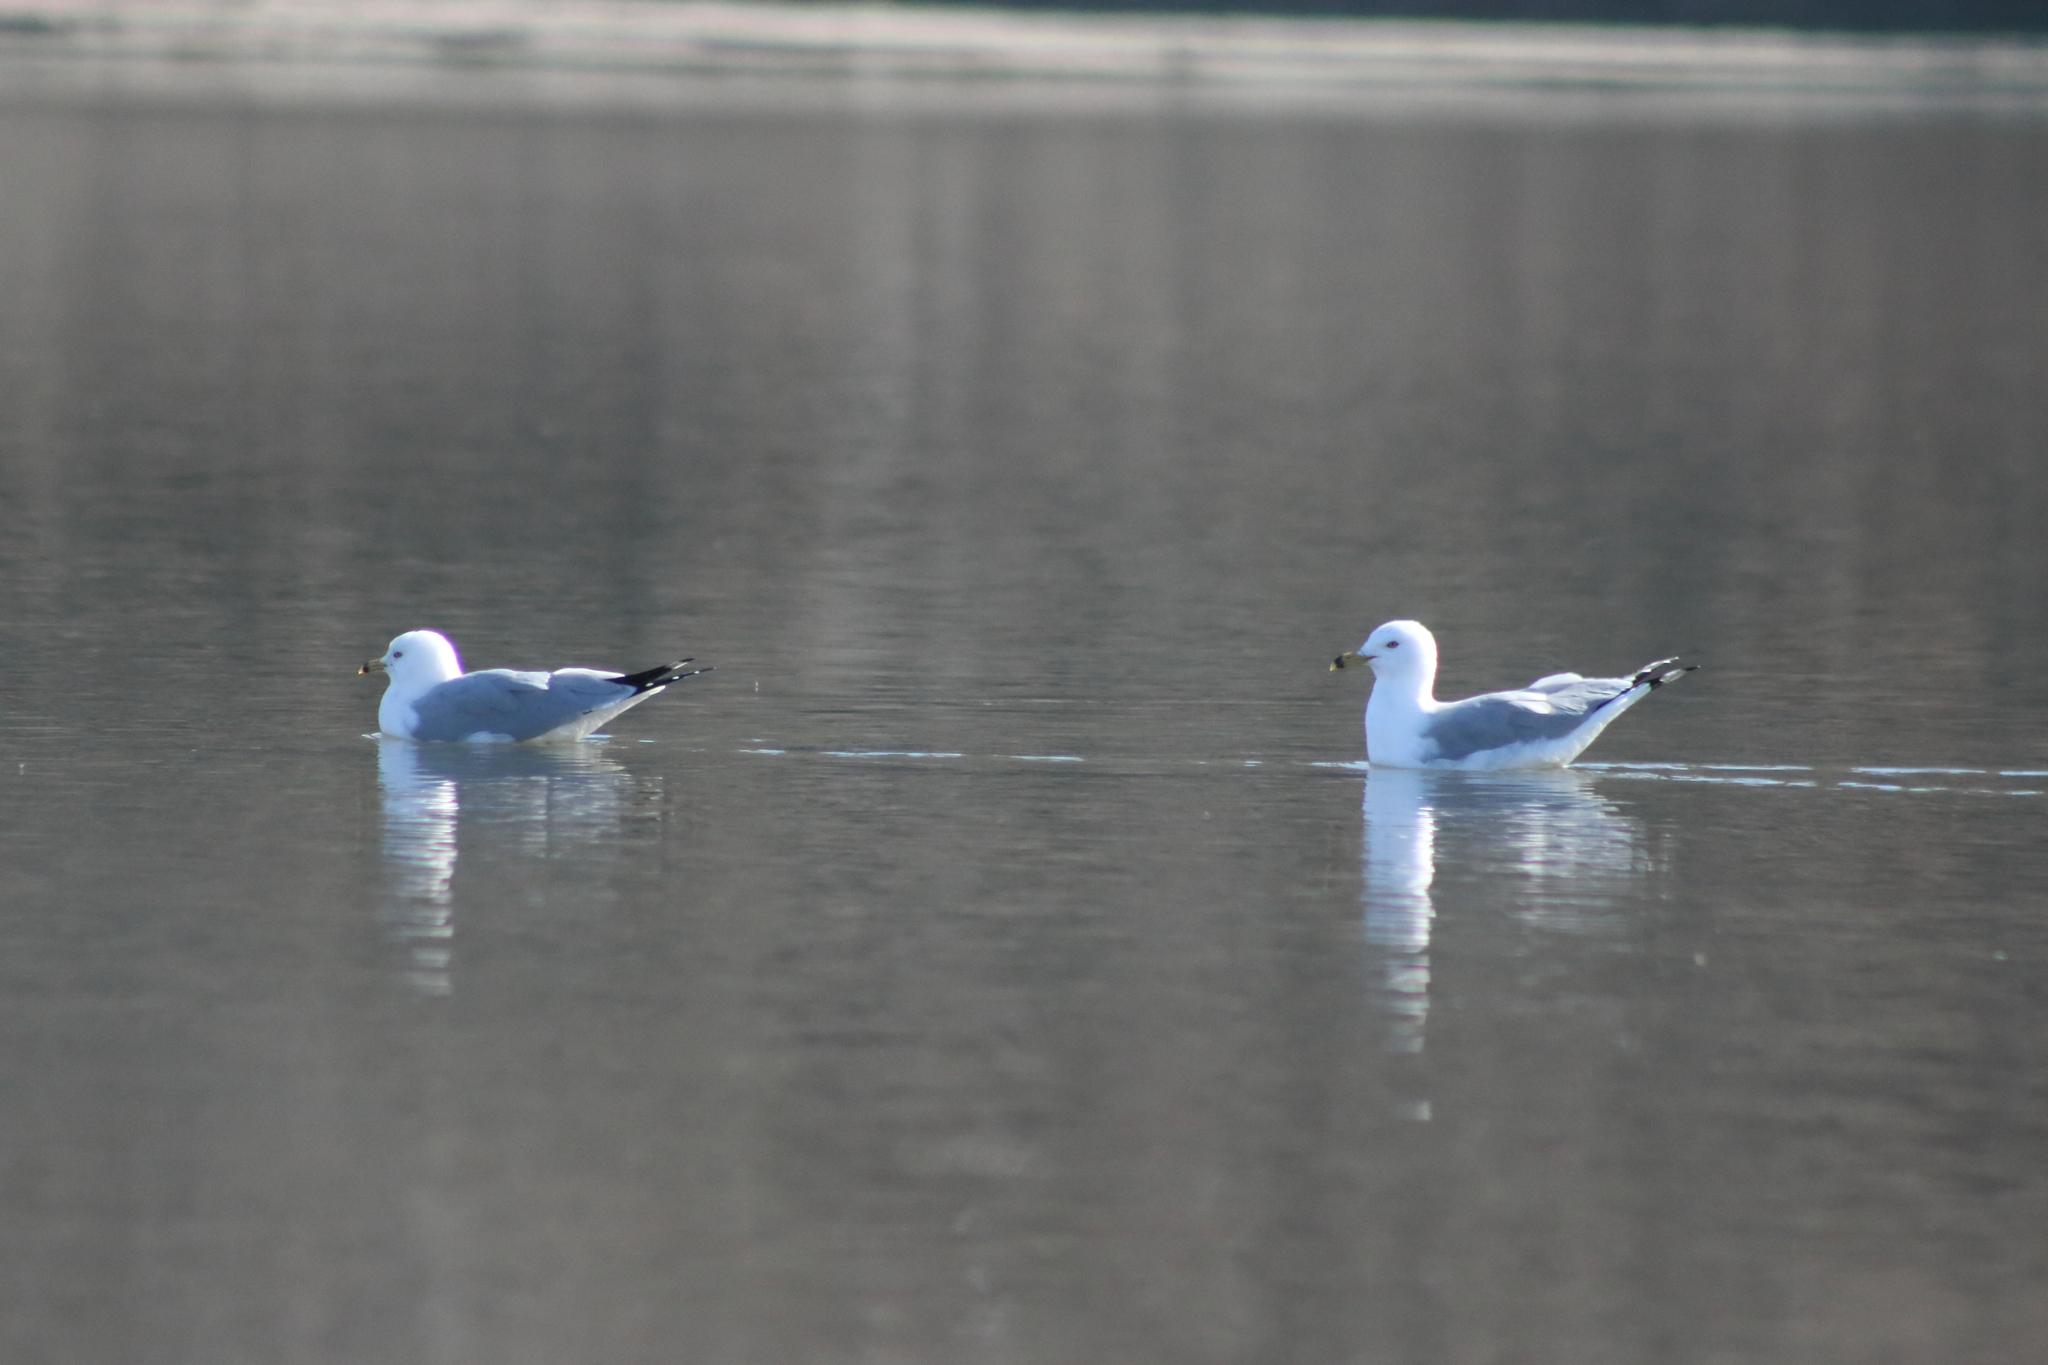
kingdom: Animalia
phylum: Chordata
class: Aves
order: Charadriiformes
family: Laridae
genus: Larus
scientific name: Larus delawarensis
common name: Ring-billed gull
